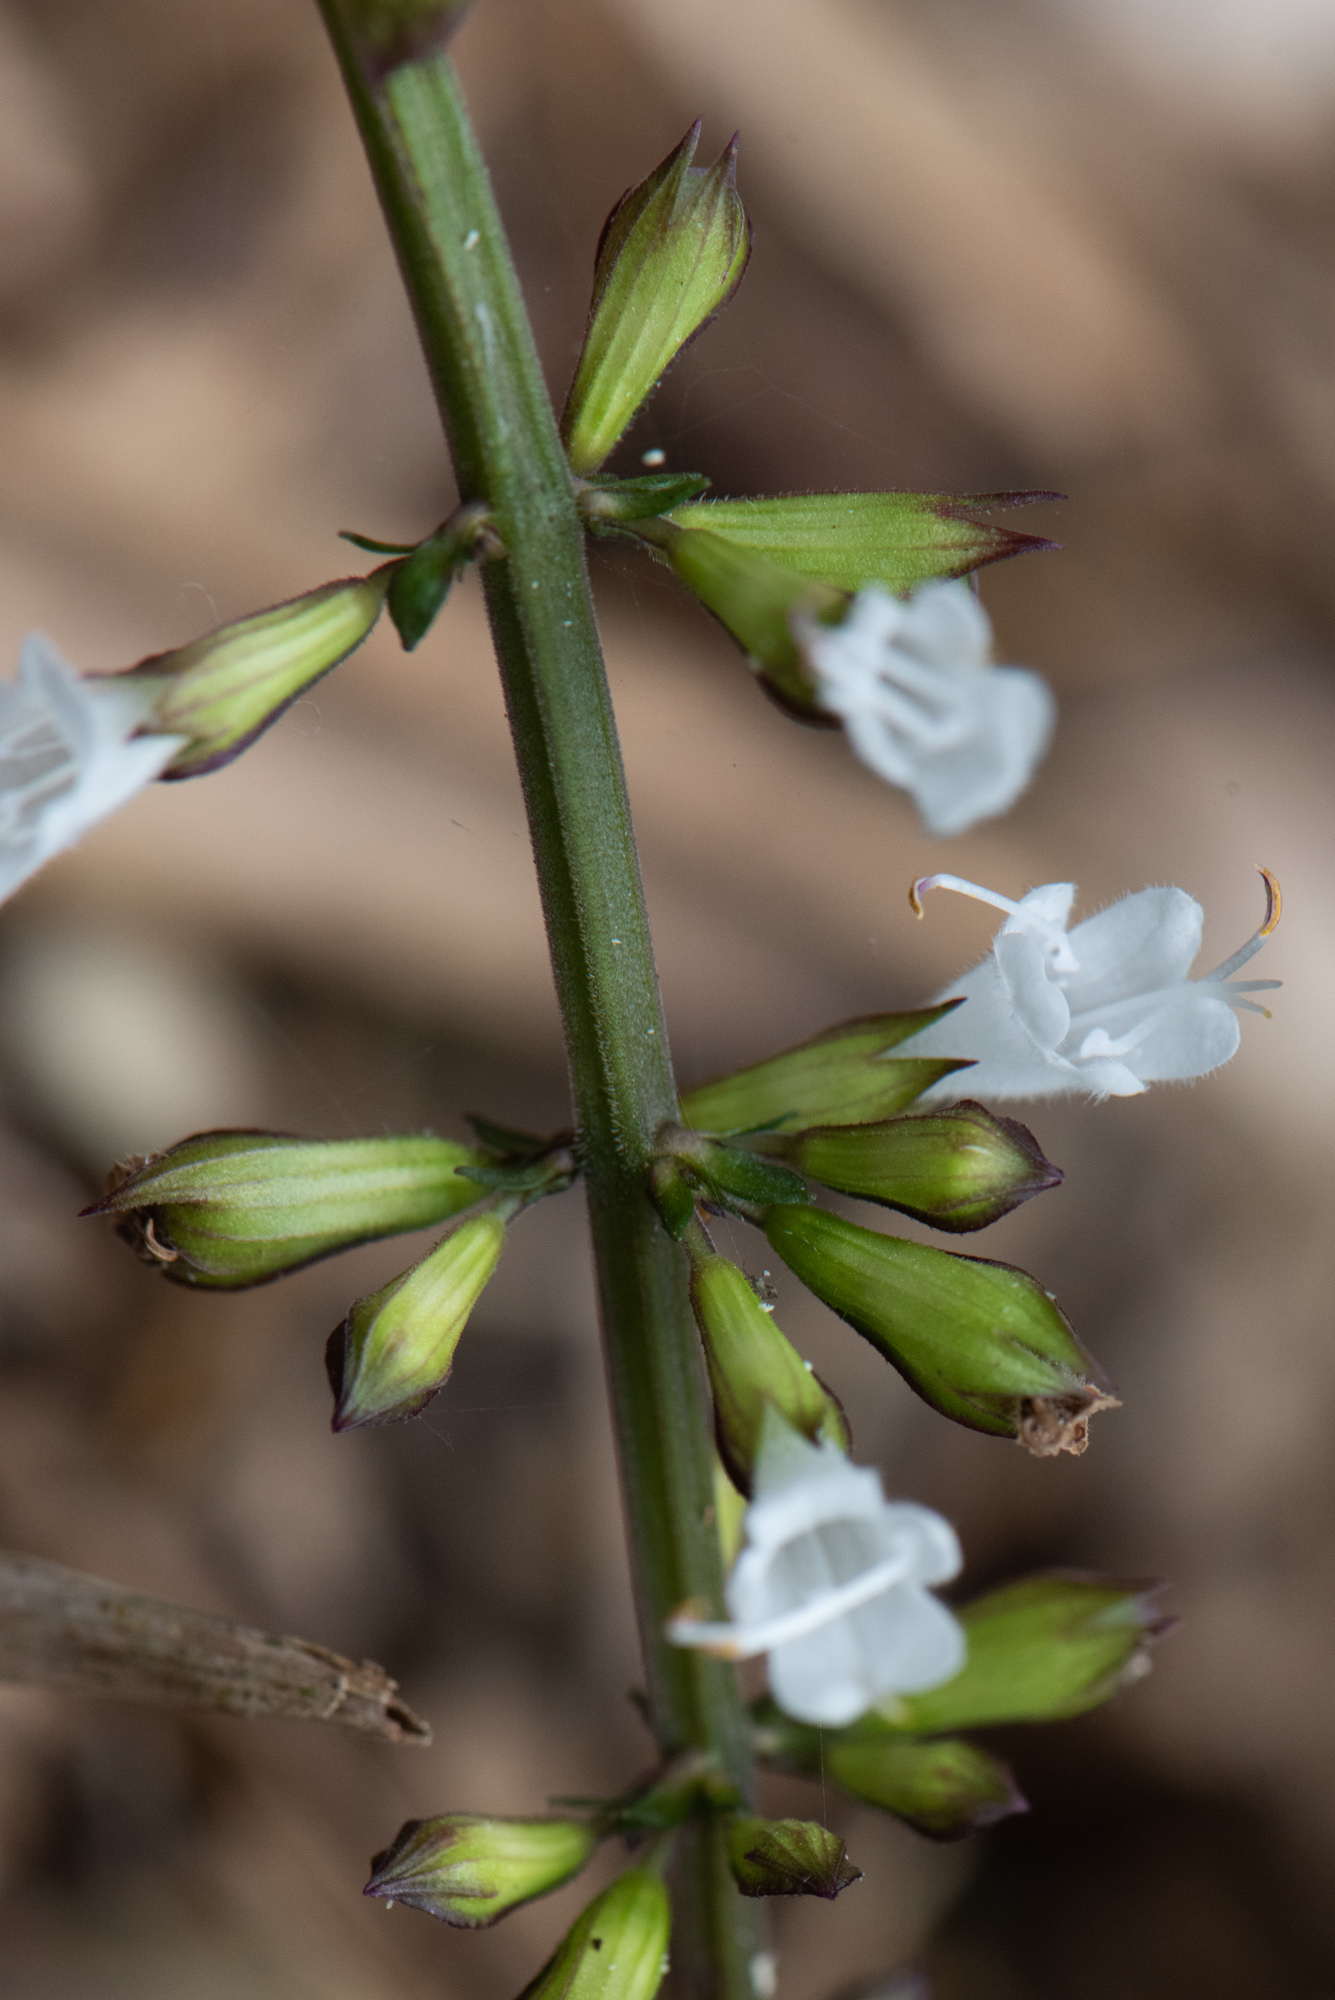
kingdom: Plantae
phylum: Tracheophyta
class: Magnoliopsida
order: Lamiales
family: Lamiaceae
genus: Salvia
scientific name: Salvia hayatae
